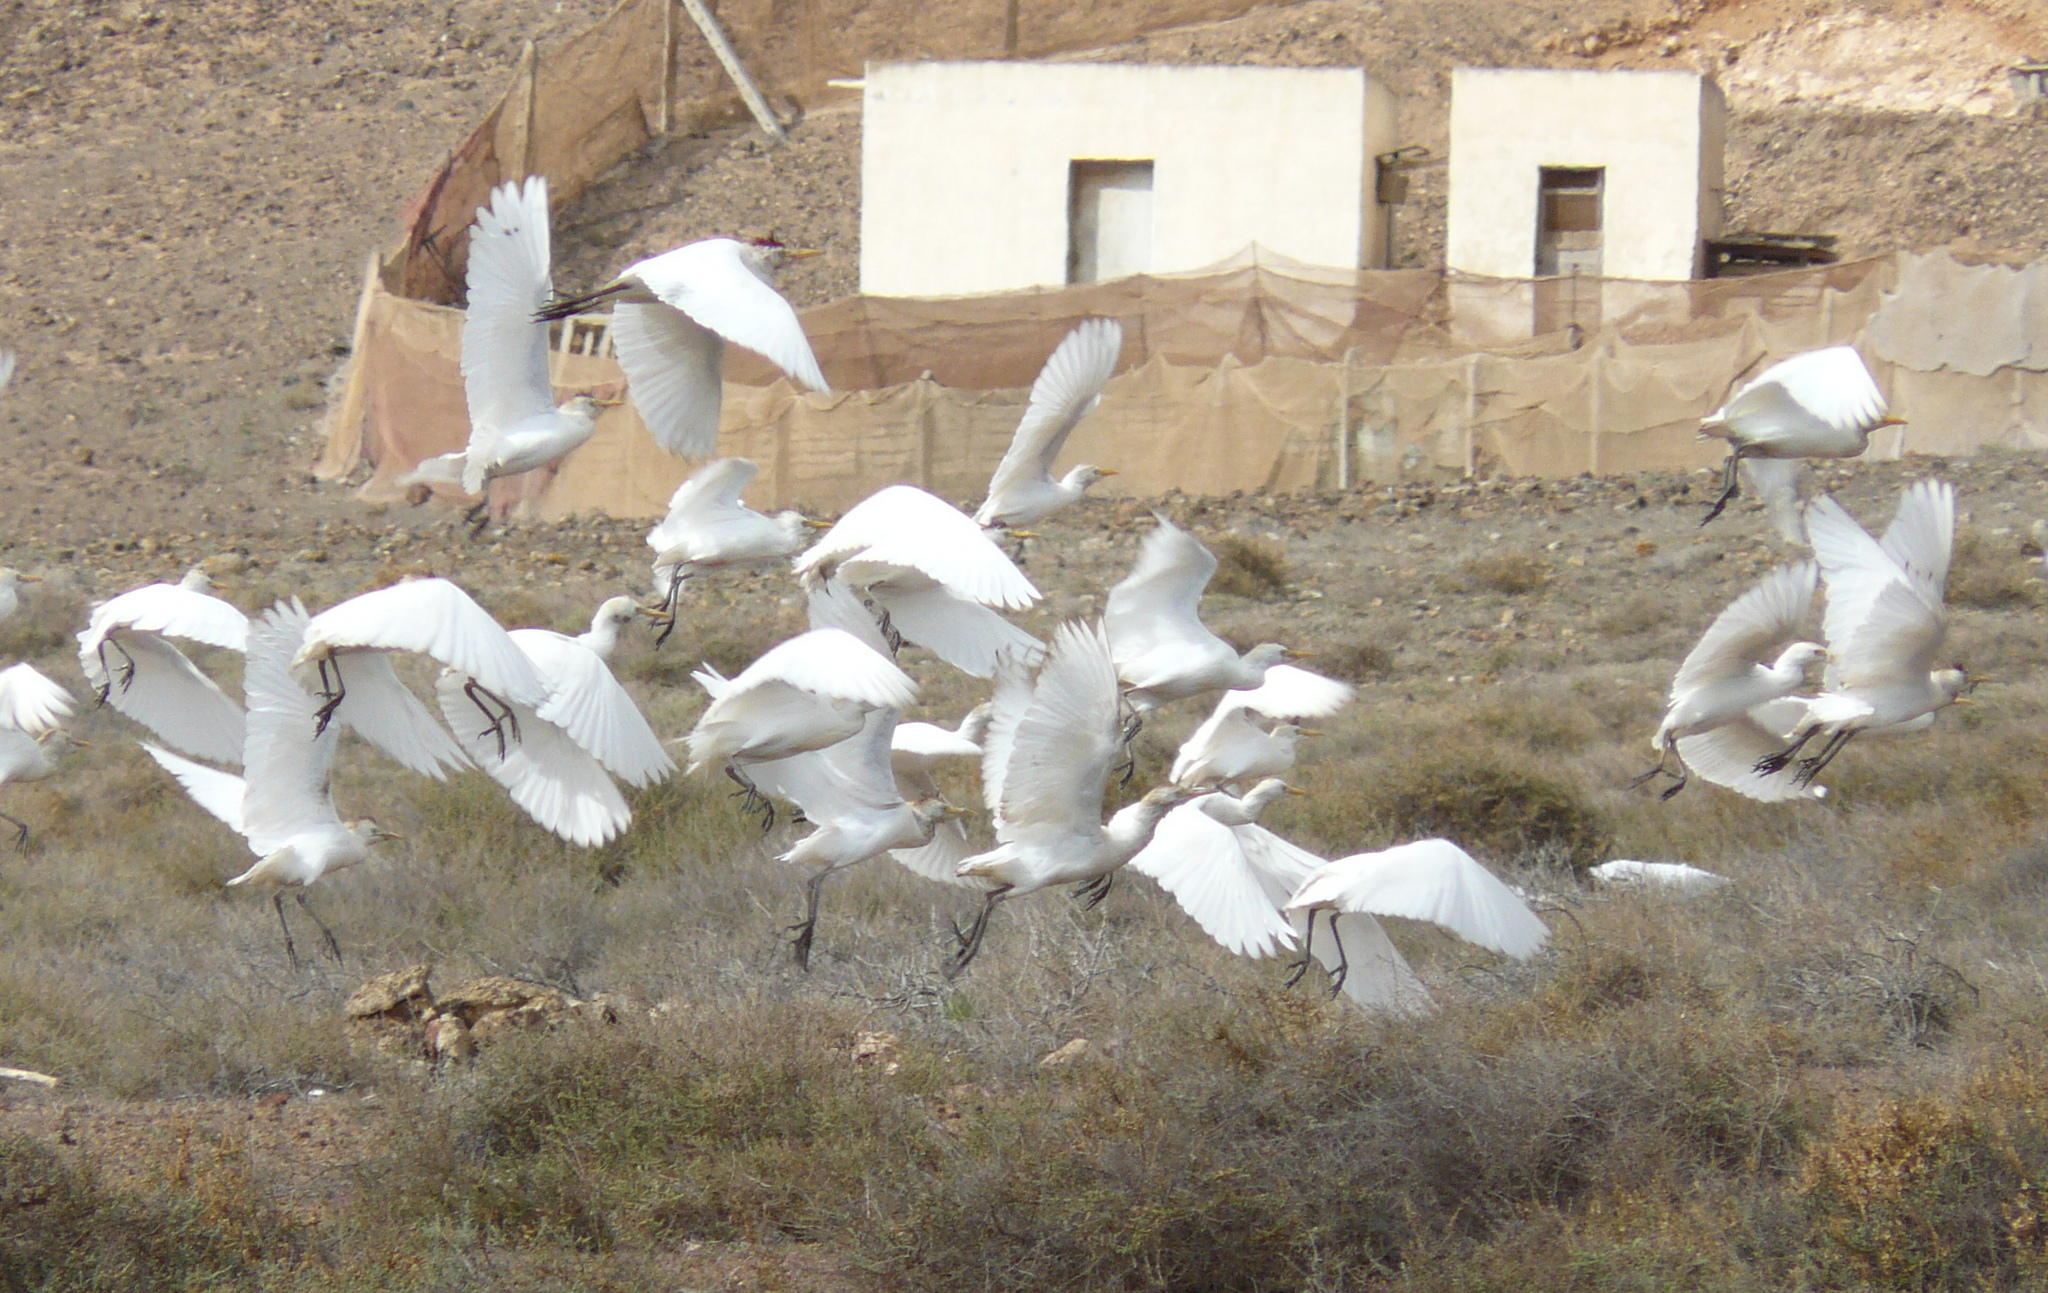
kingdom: Animalia
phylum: Chordata
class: Aves
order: Pelecaniformes
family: Ardeidae
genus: Bubulcus
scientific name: Bubulcus ibis
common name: Cattle egret
